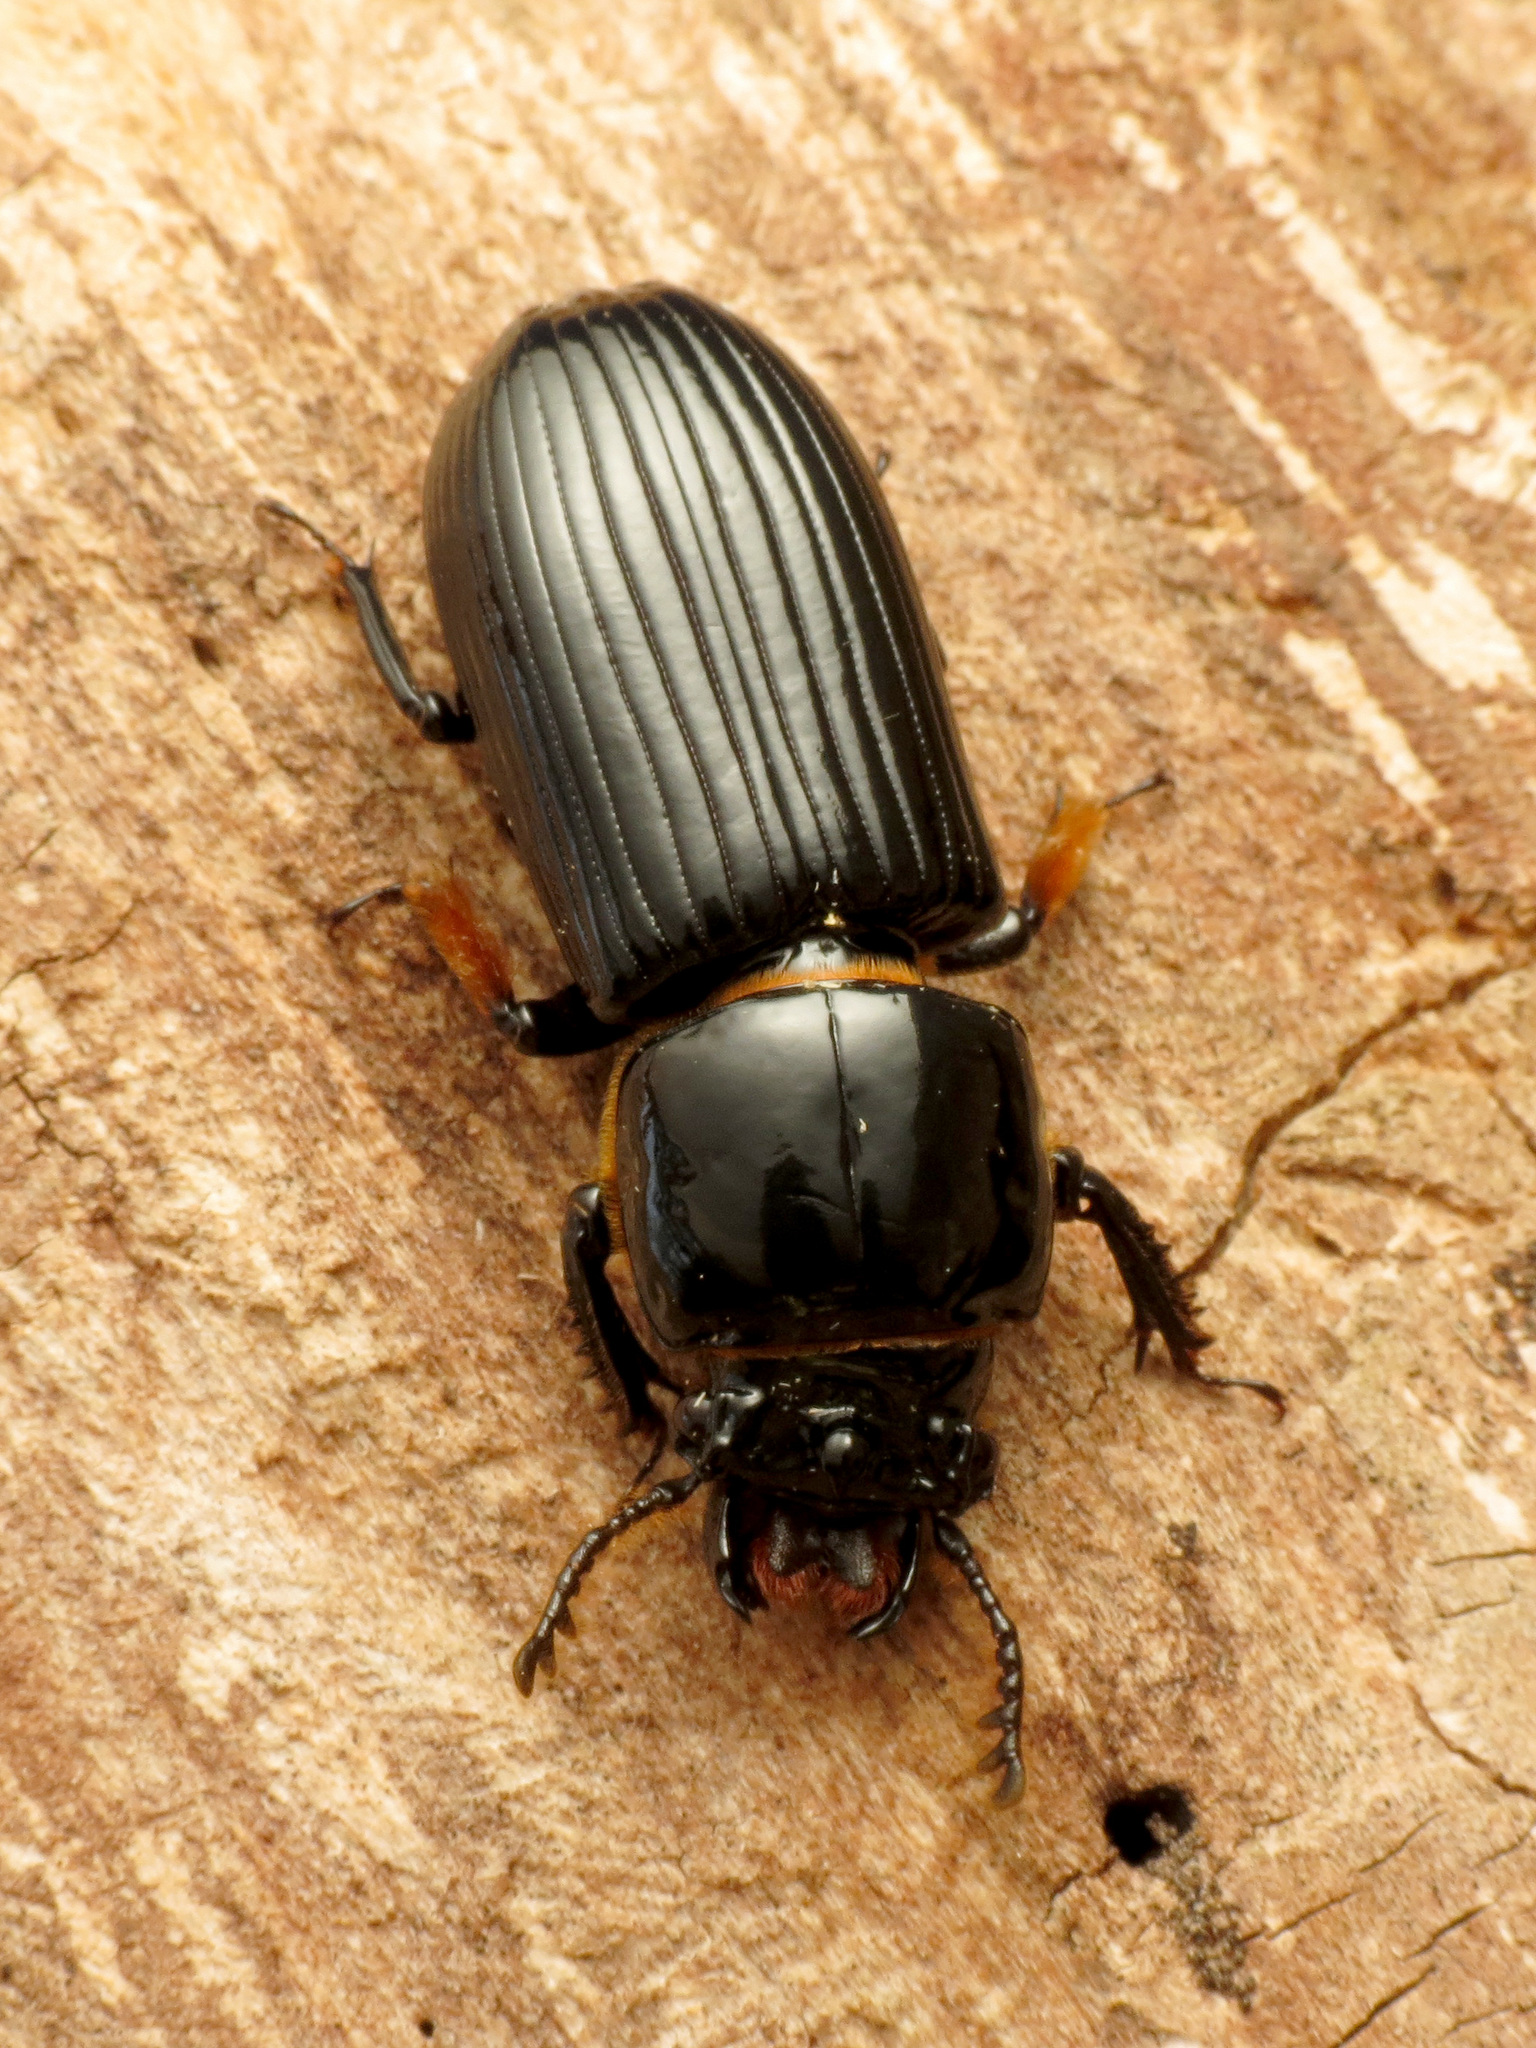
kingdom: Animalia
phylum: Arthropoda
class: Insecta
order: Coleoptera
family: Passalidae
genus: Odontotaenius
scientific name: Odontotaenius disjunctus
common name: Patent leather beetle
